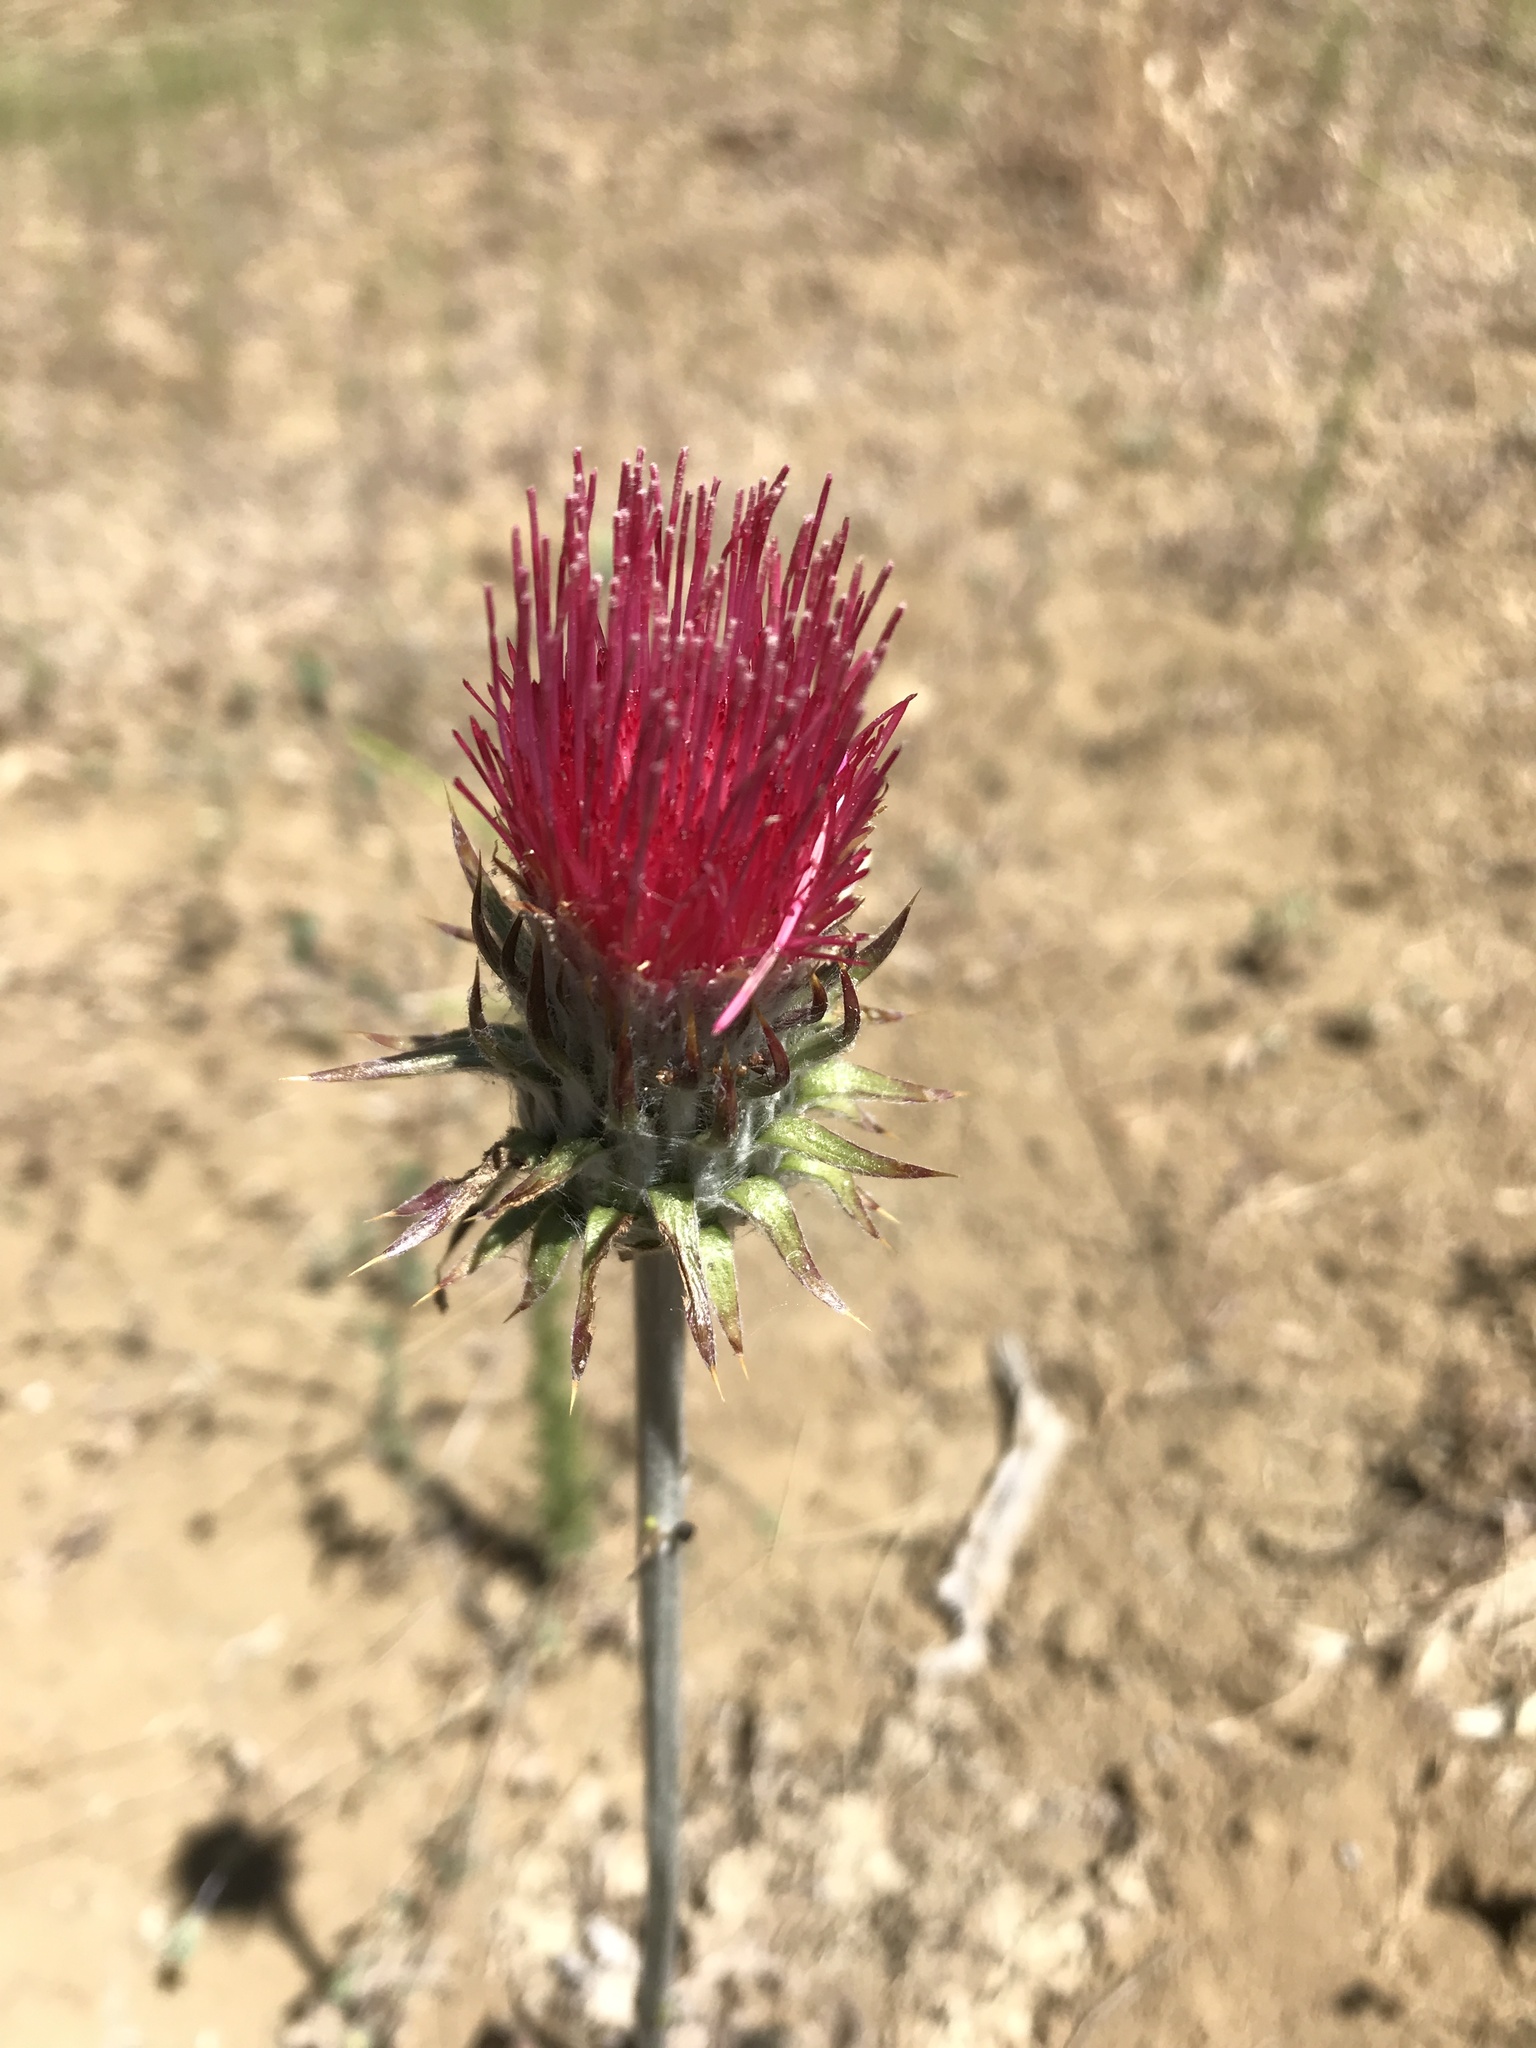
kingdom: Plantae
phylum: Tracheophyta
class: Magnoliopsida
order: Asterales
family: Asteraceae
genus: Cirsium
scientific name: Cirsium occidentale
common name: Western thistle
